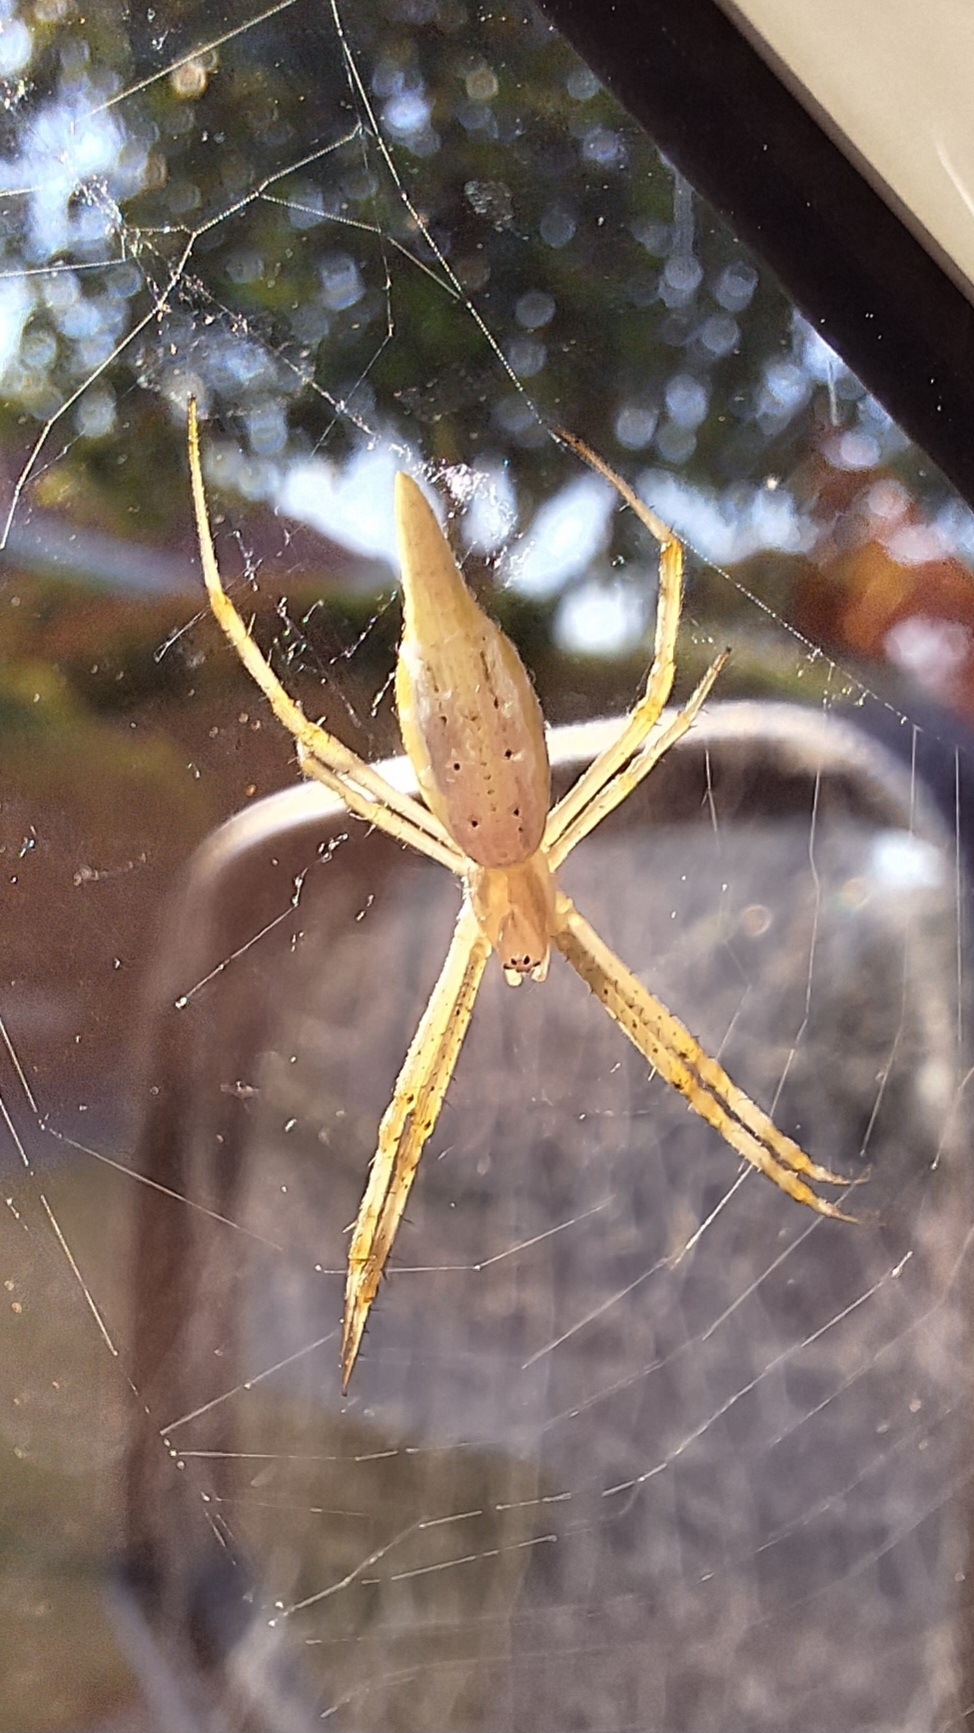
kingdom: Animalia
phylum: Arthropoda
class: Arachnida
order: Araneae
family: Araneidae
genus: Argiope
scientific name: Argiope protensa
